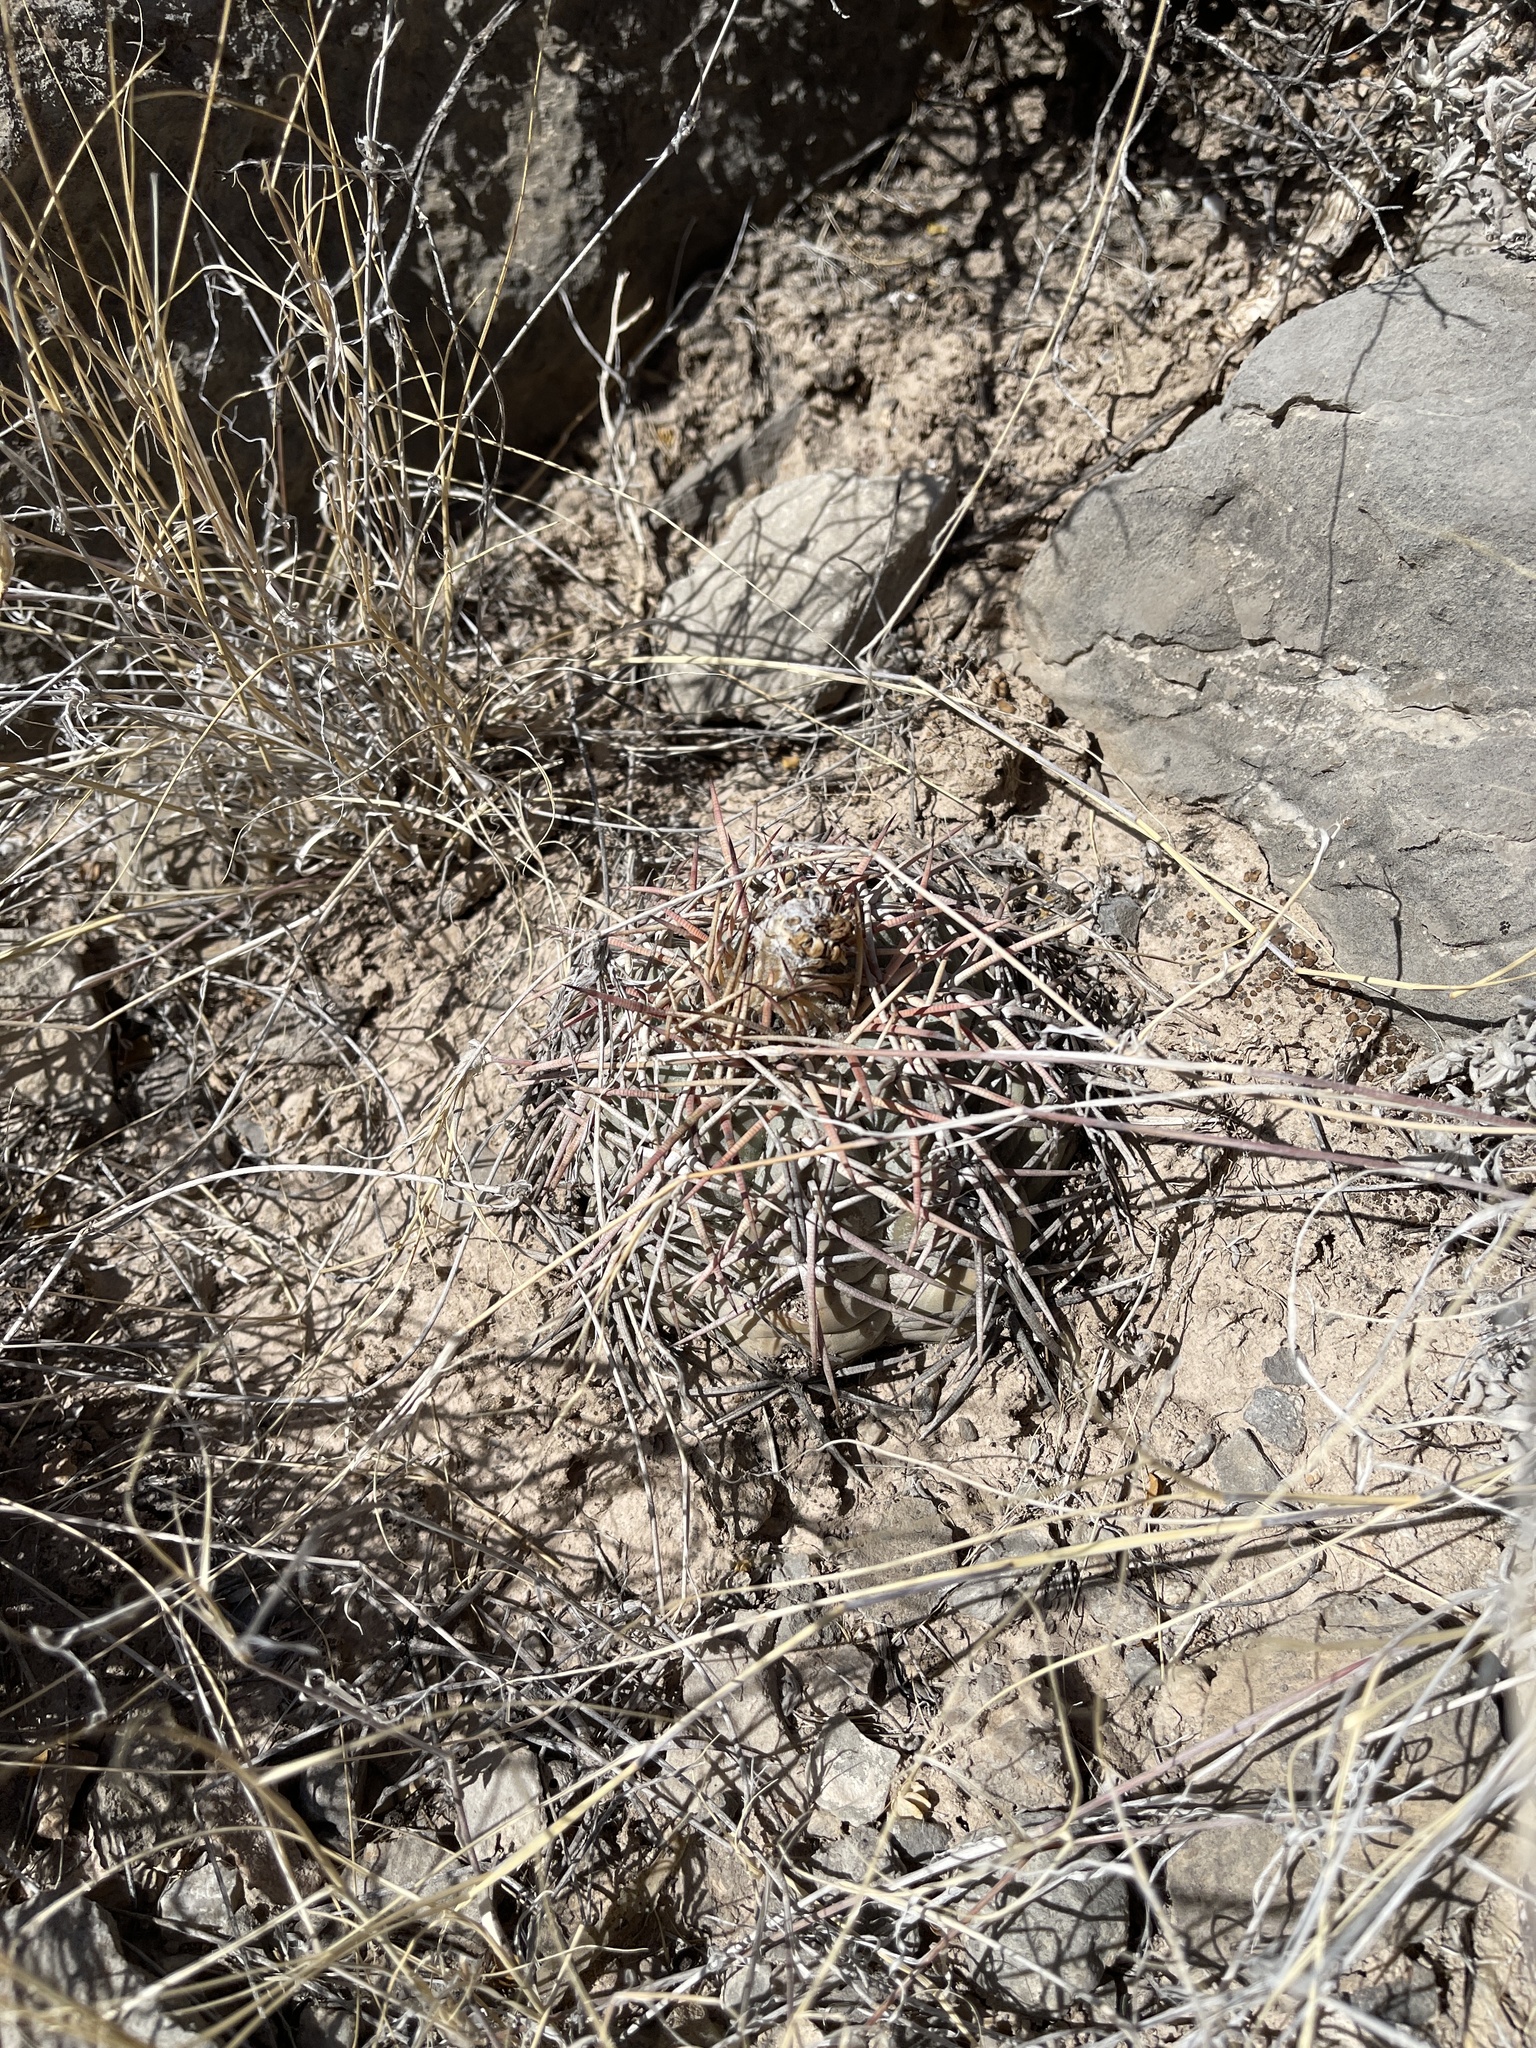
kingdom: Plantae
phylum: Tracheophyta
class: Magnoliopsida
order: Caryophyllales
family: Cactaceae
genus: Echinocactus
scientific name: Echinocactus horizonthalonius
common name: Devilshead
